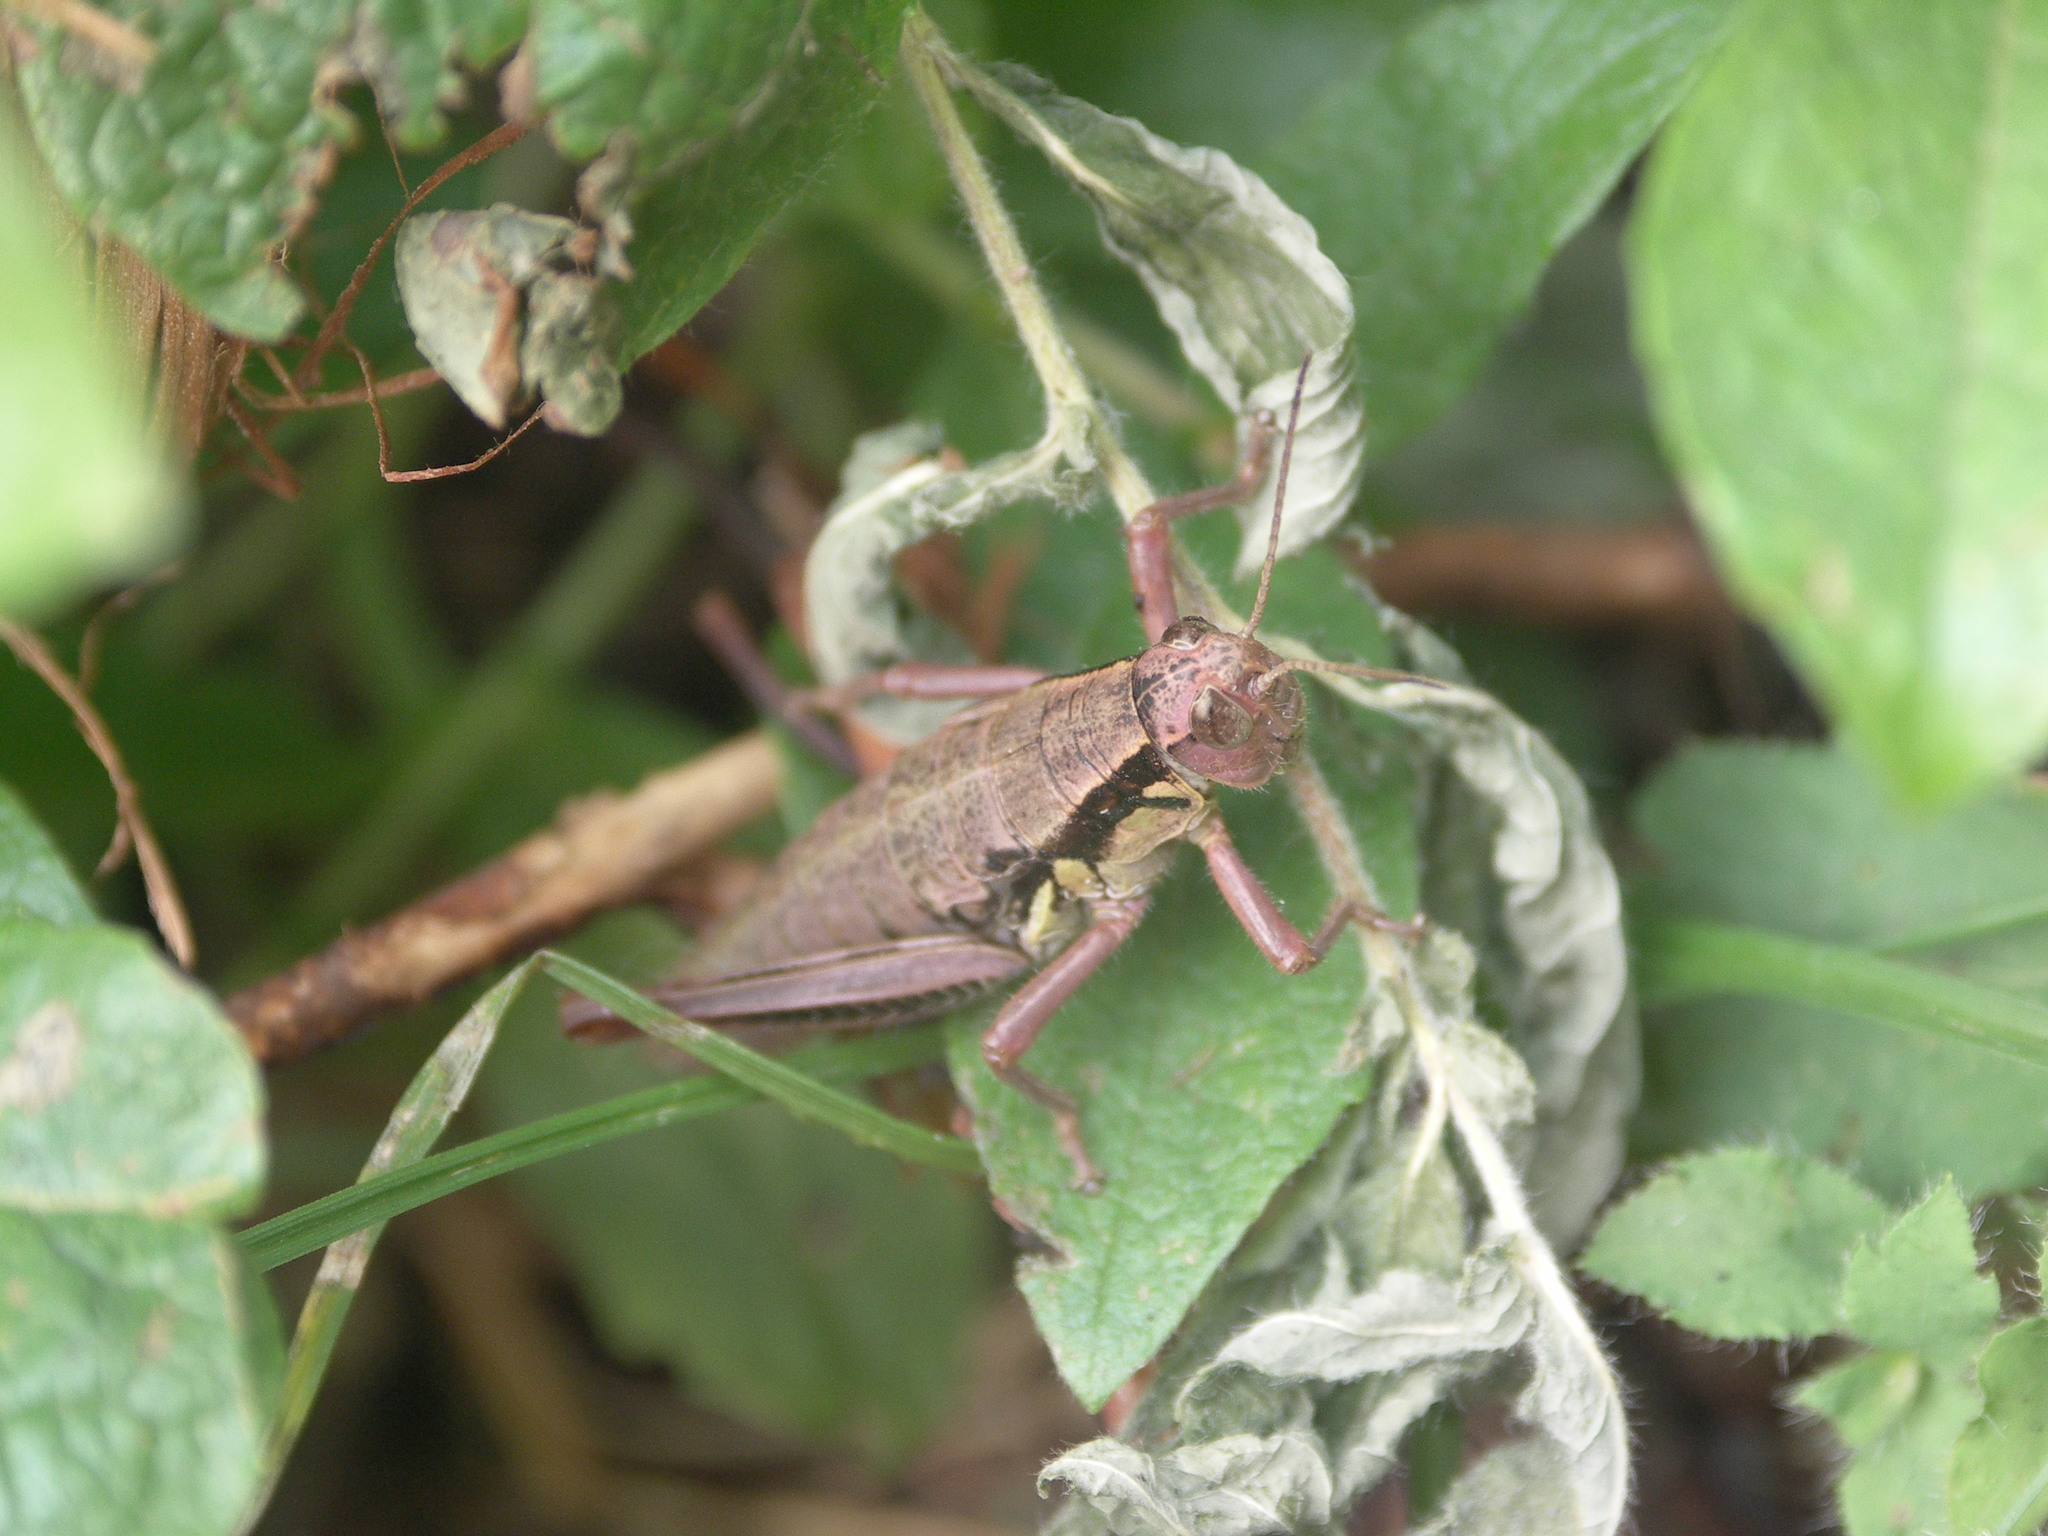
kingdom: Animalia
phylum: Arthropoda
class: Insecta
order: Orthoptera
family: Acrididae
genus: Prumna
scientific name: Prumna primnoa
